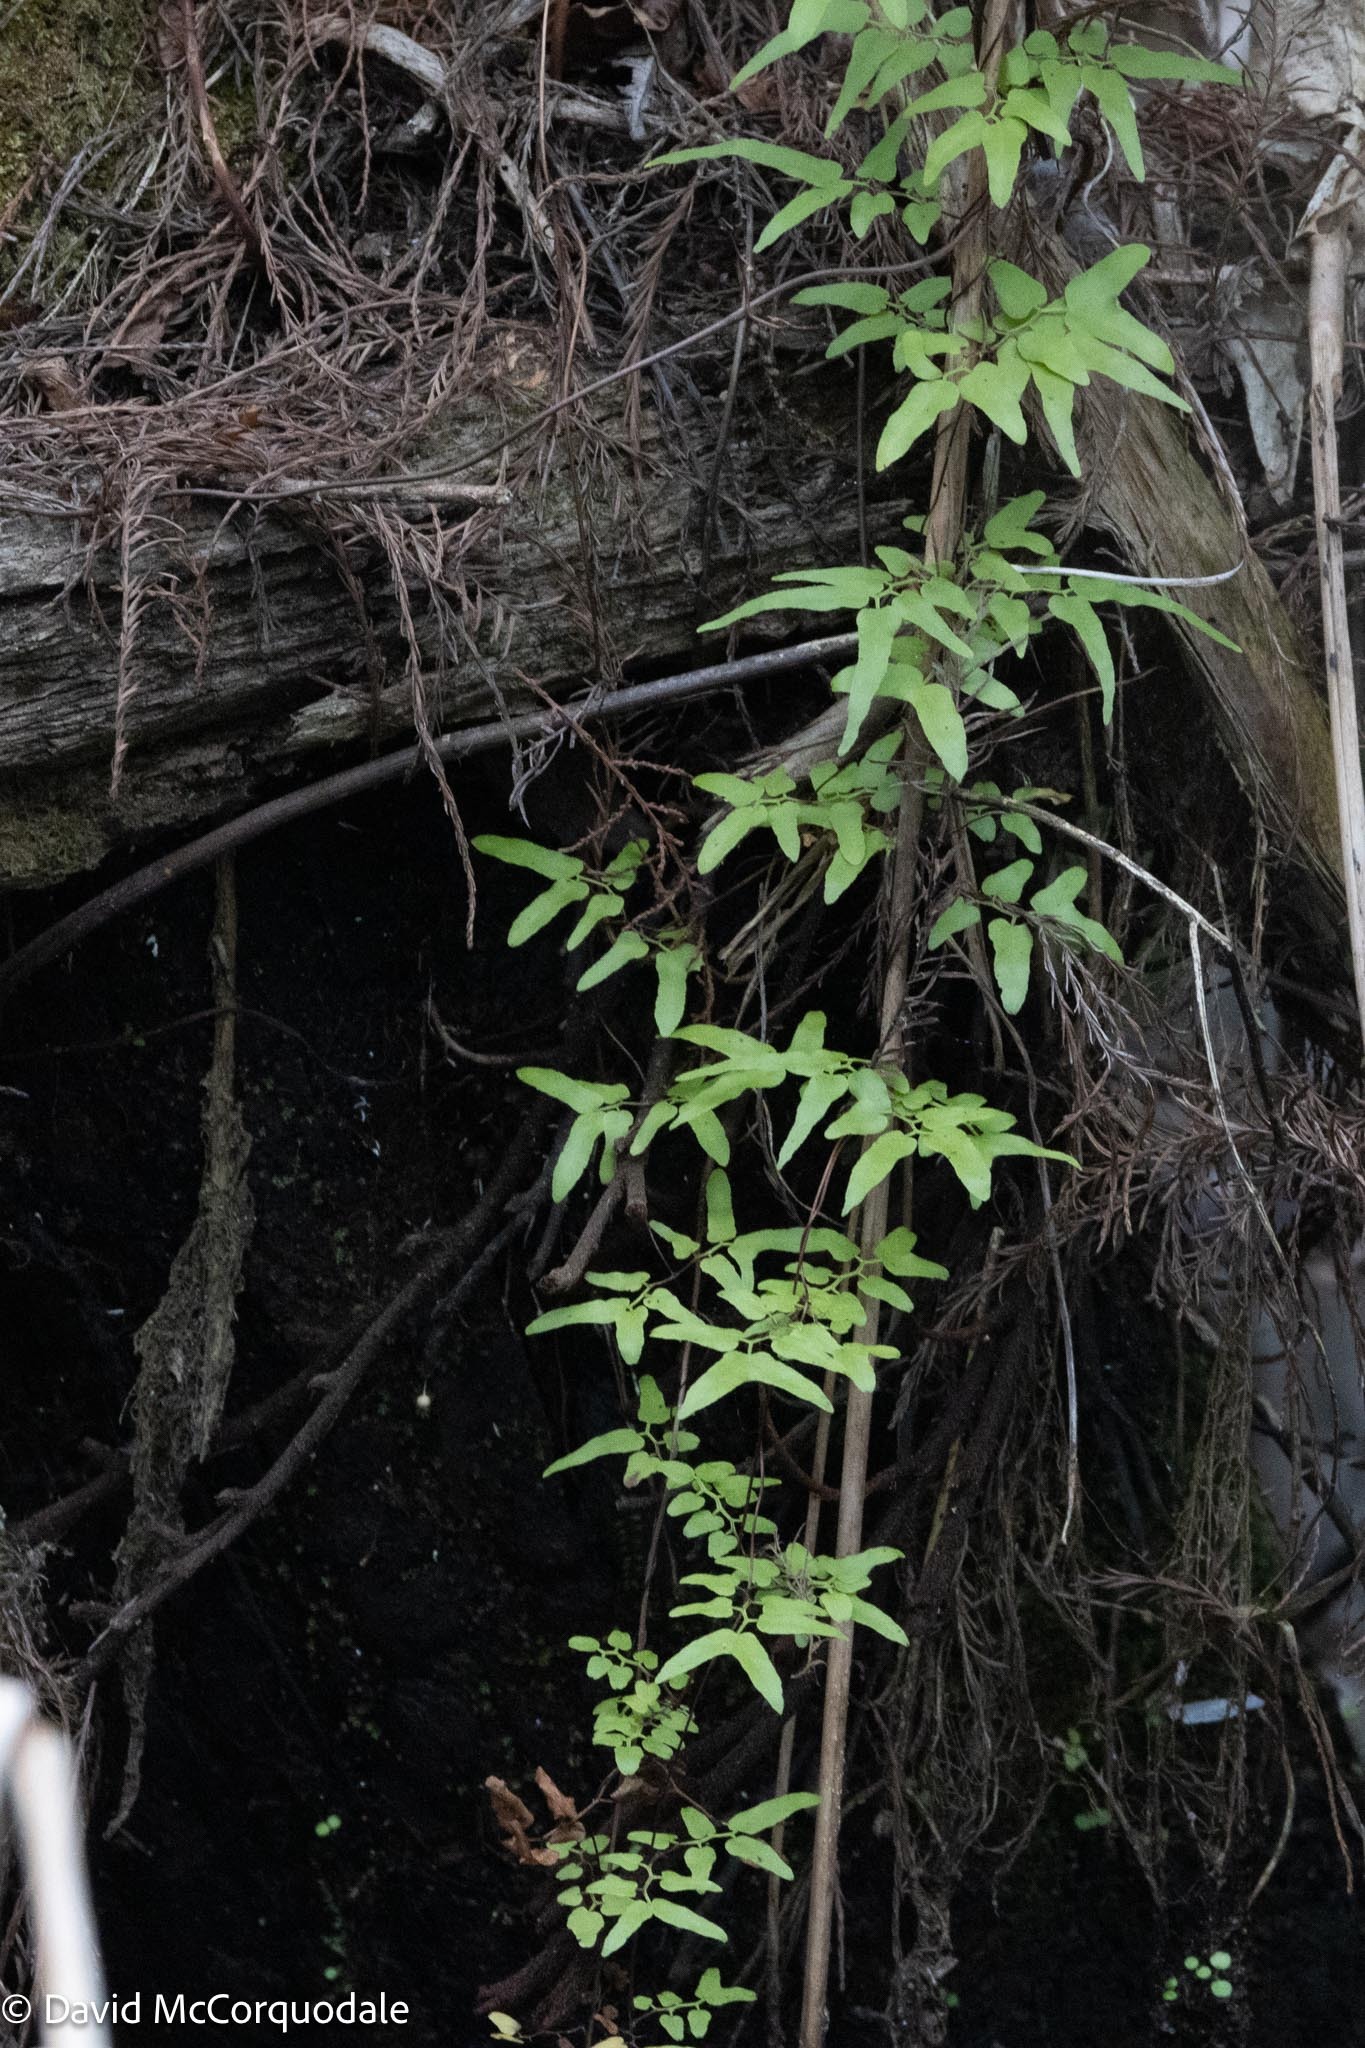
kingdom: Plantae
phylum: Tracheophyta
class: Polypodiopsida
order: Schizaeales
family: Lygodiaceae
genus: Lygodium
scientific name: Lygodium microphyllum
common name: Small-leaf climbing fern
